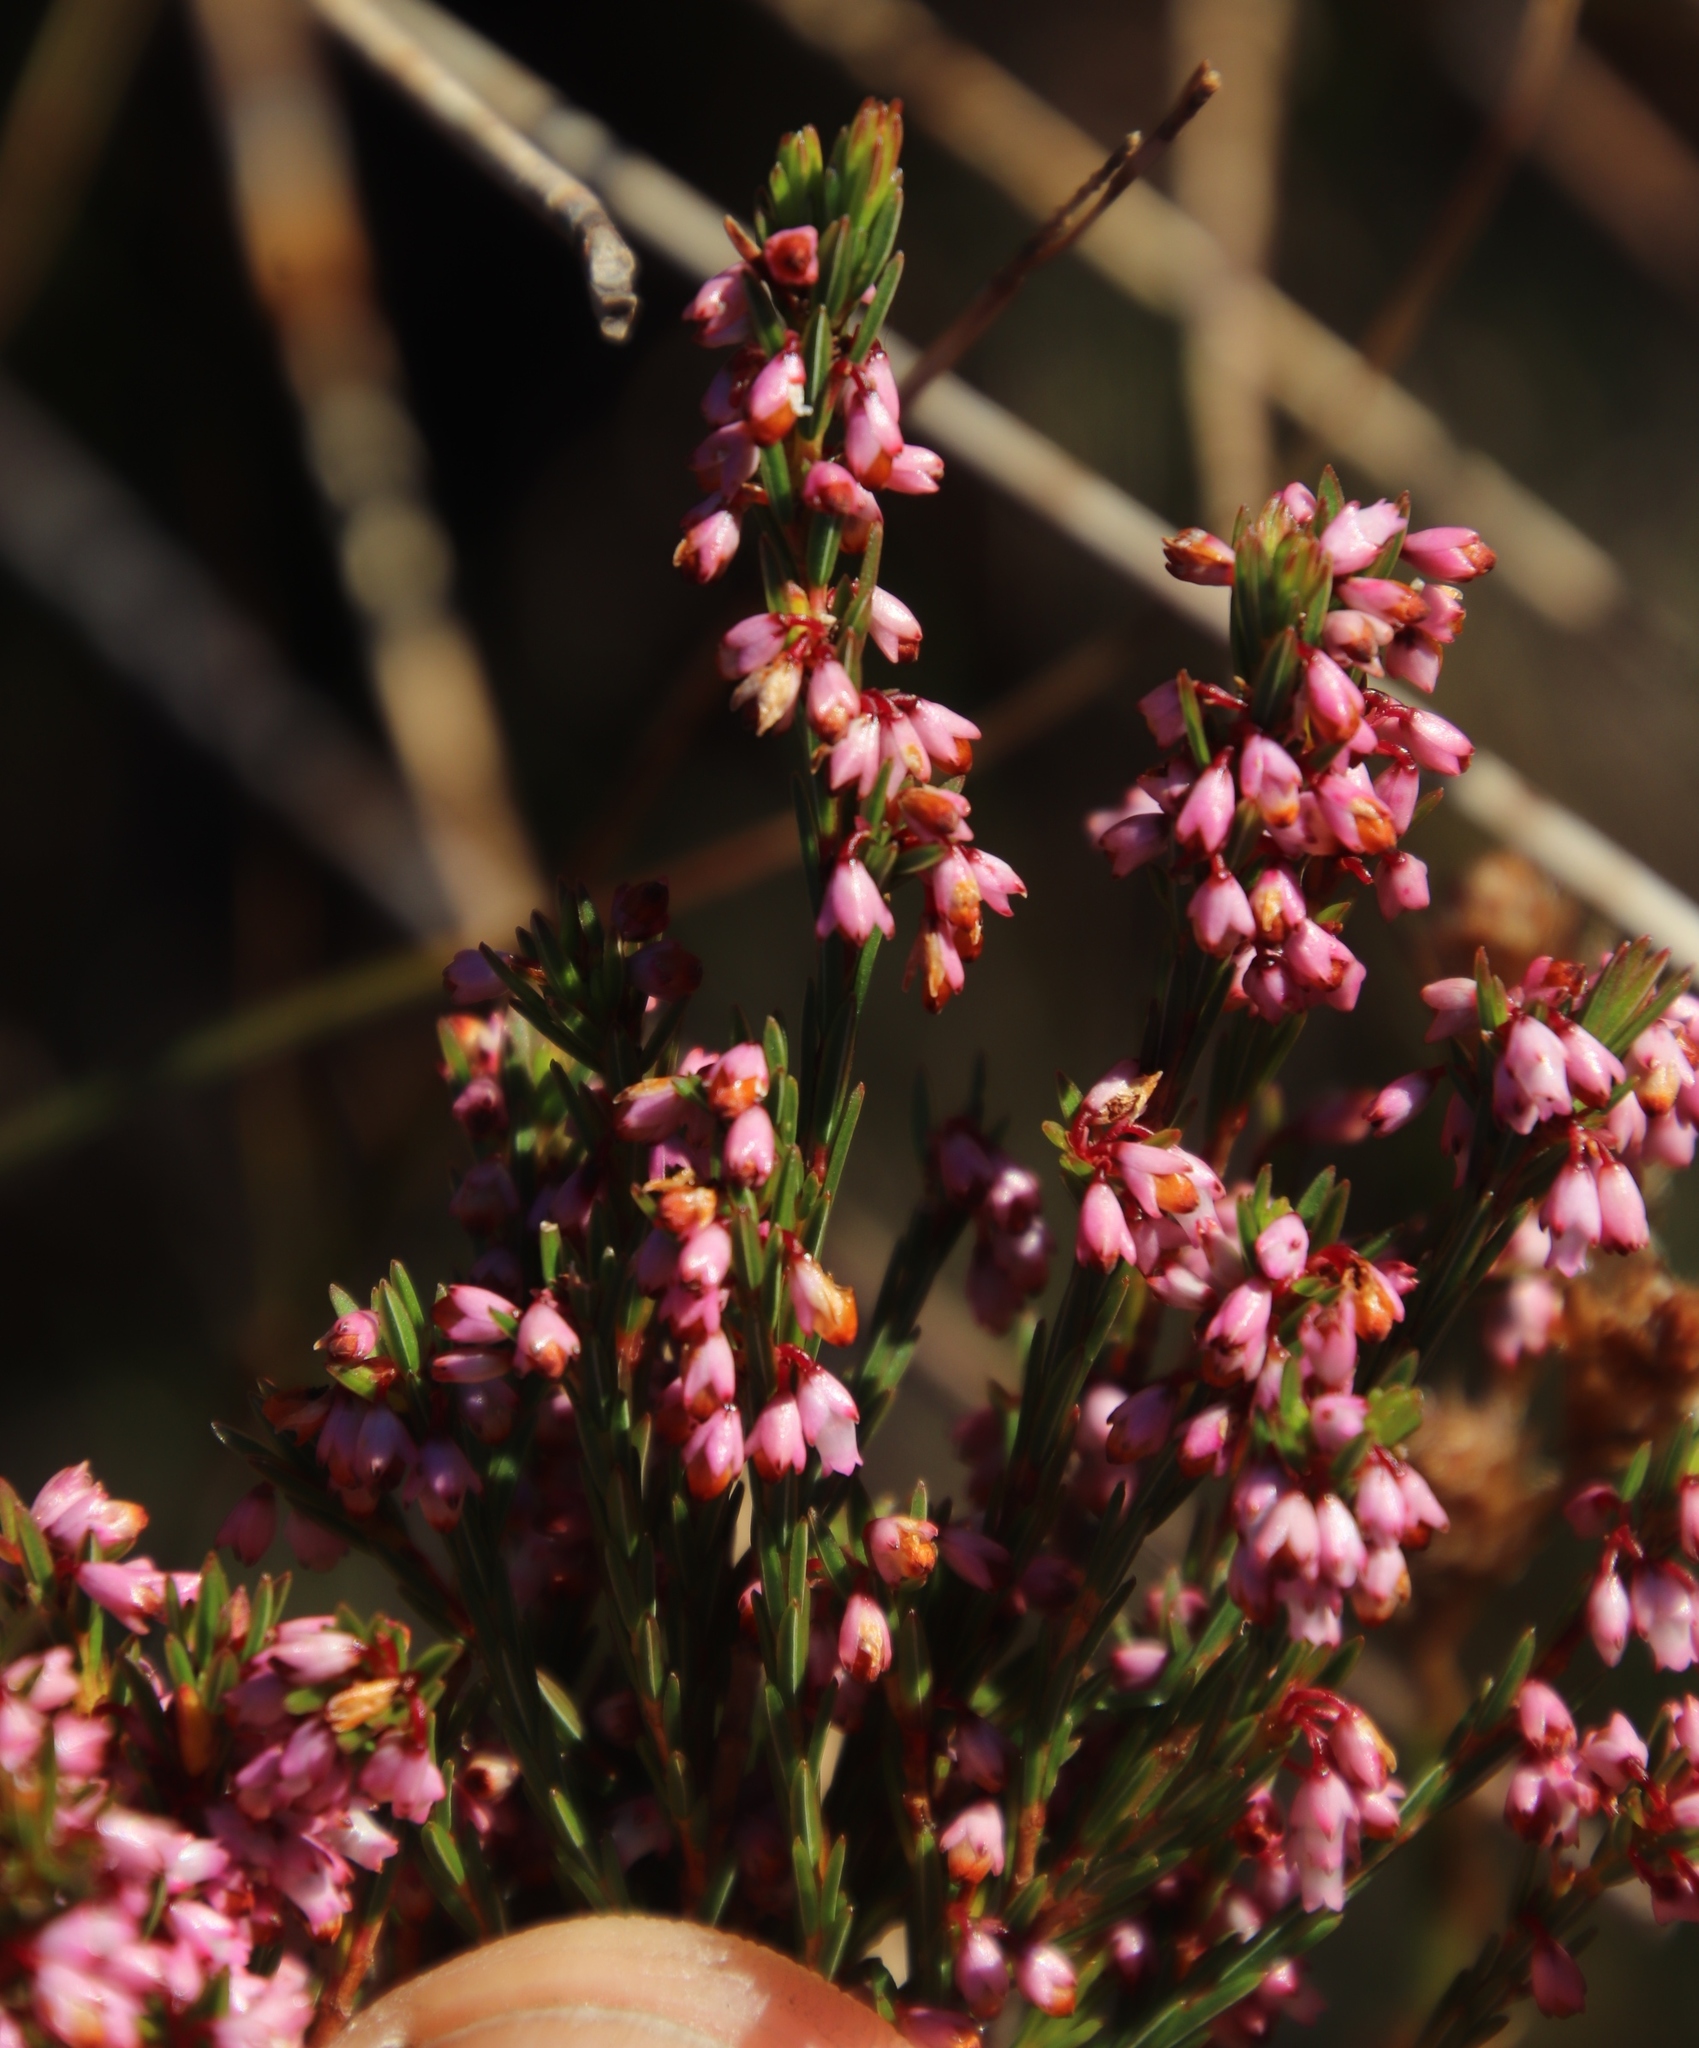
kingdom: Plantae
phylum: Tracheophyta
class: Magnoliopsida
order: Ericales
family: Ericaceae
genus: Erica
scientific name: Erica articularis
